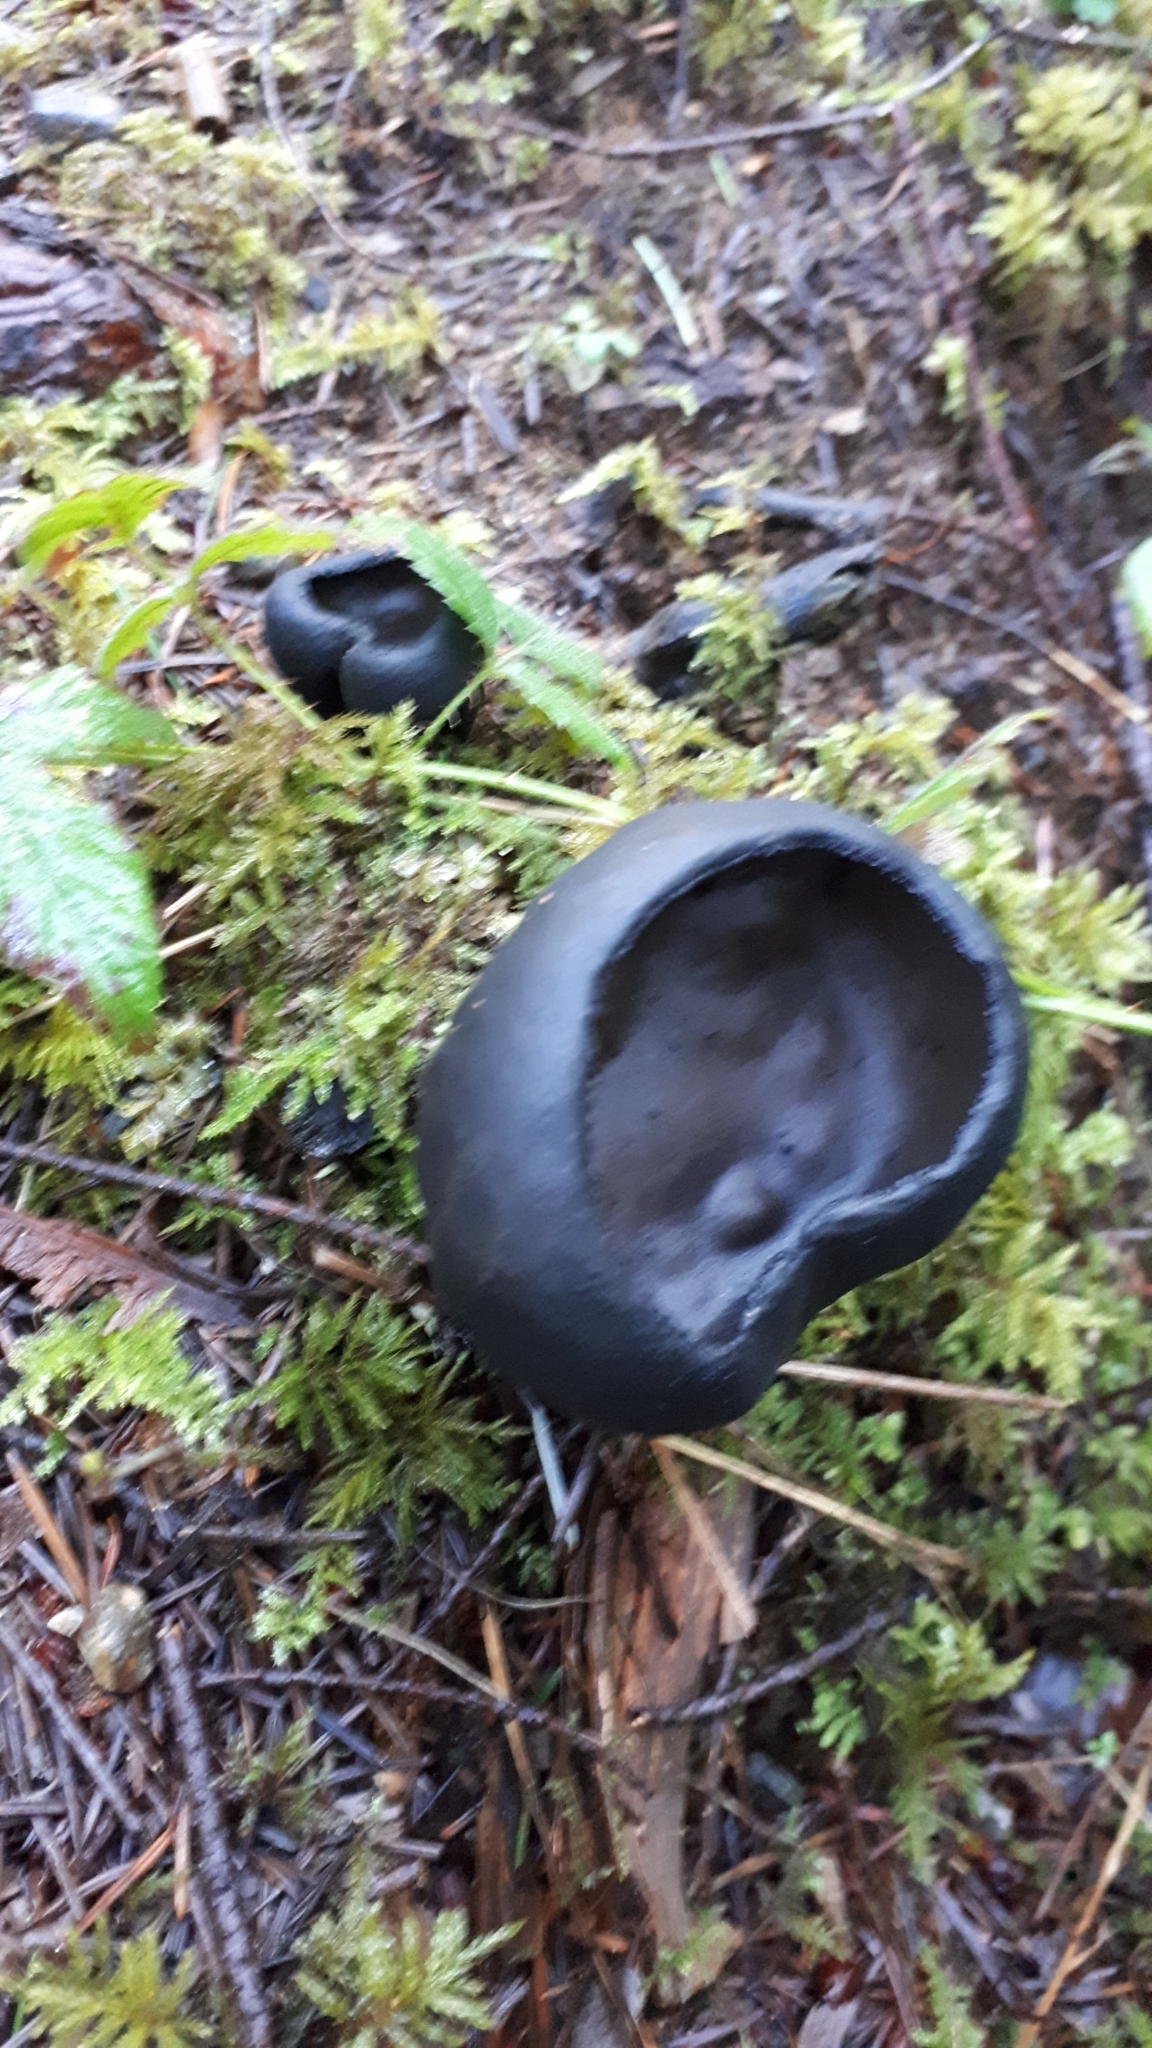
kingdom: Fungi
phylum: Ascomycota
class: Pezizomycetes
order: Pezizales
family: Sarcosomataceae
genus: Urnula
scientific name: Urnula padeniana
